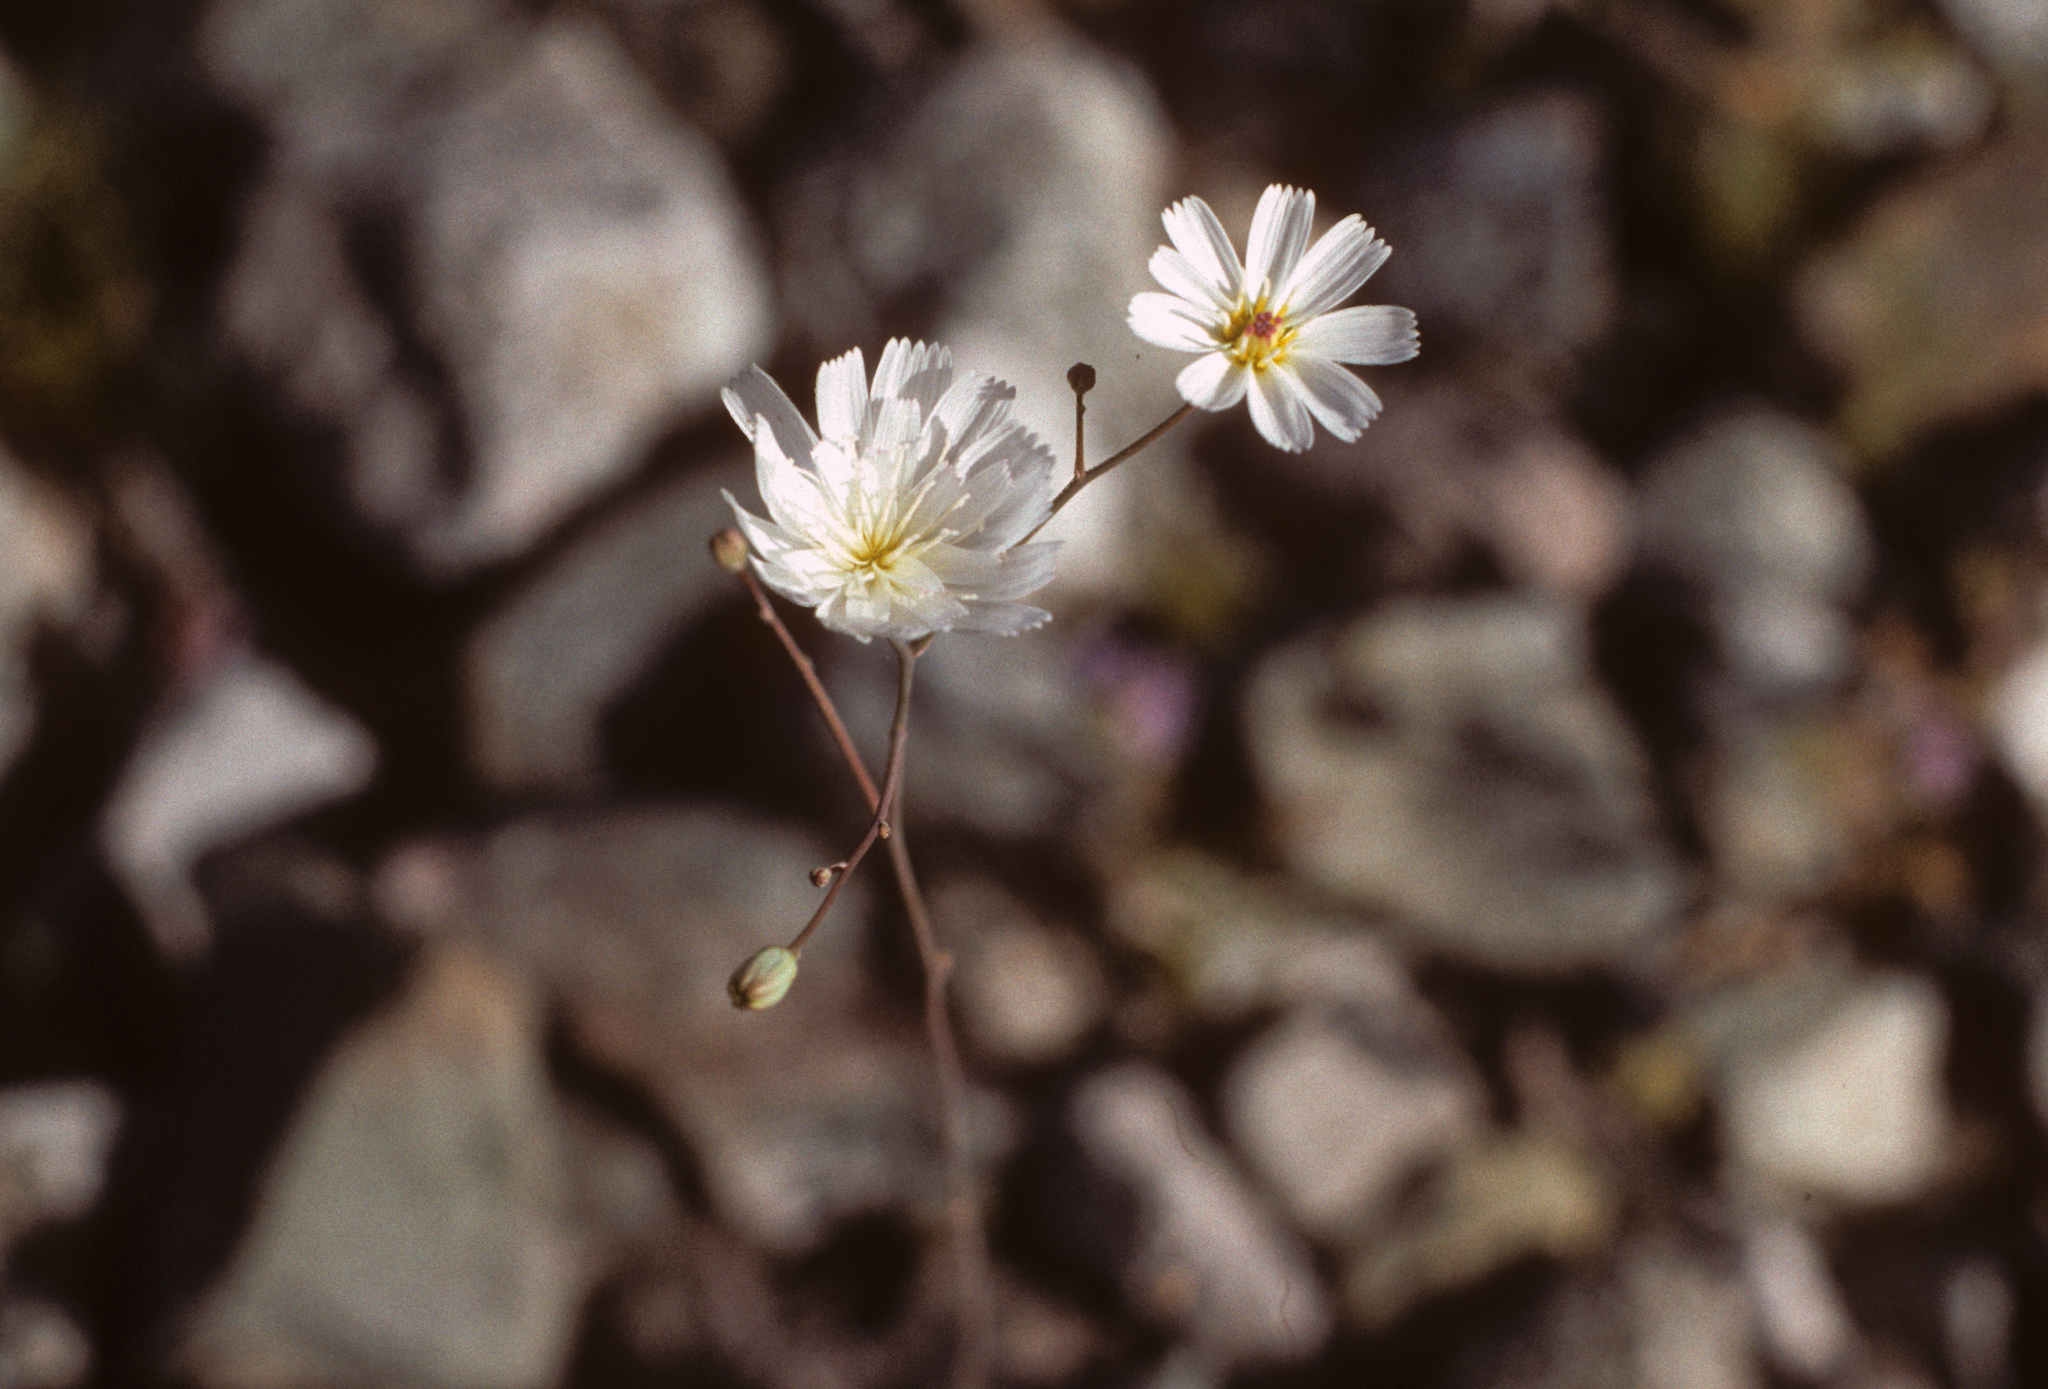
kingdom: Plantae
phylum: Tracheophyta
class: Magnoliopsida
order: Asterales
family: Asteraceae
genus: Atrichoseris
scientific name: Atrichoseris platyphylla
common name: Tobaccoweed
